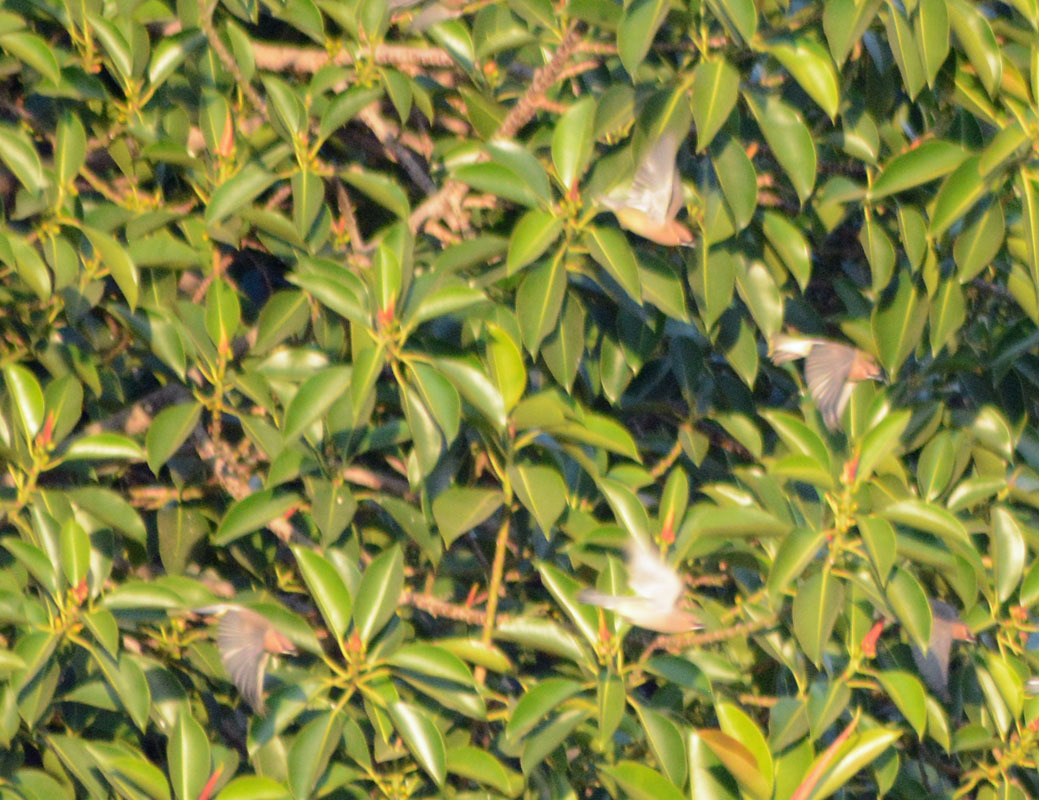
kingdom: Animalia
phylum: Chordata
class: Aves
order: Passeriformes
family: Bombycillidae
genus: Bombycilla
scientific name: Bombycilla cedrorum
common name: Cedar waxwing
